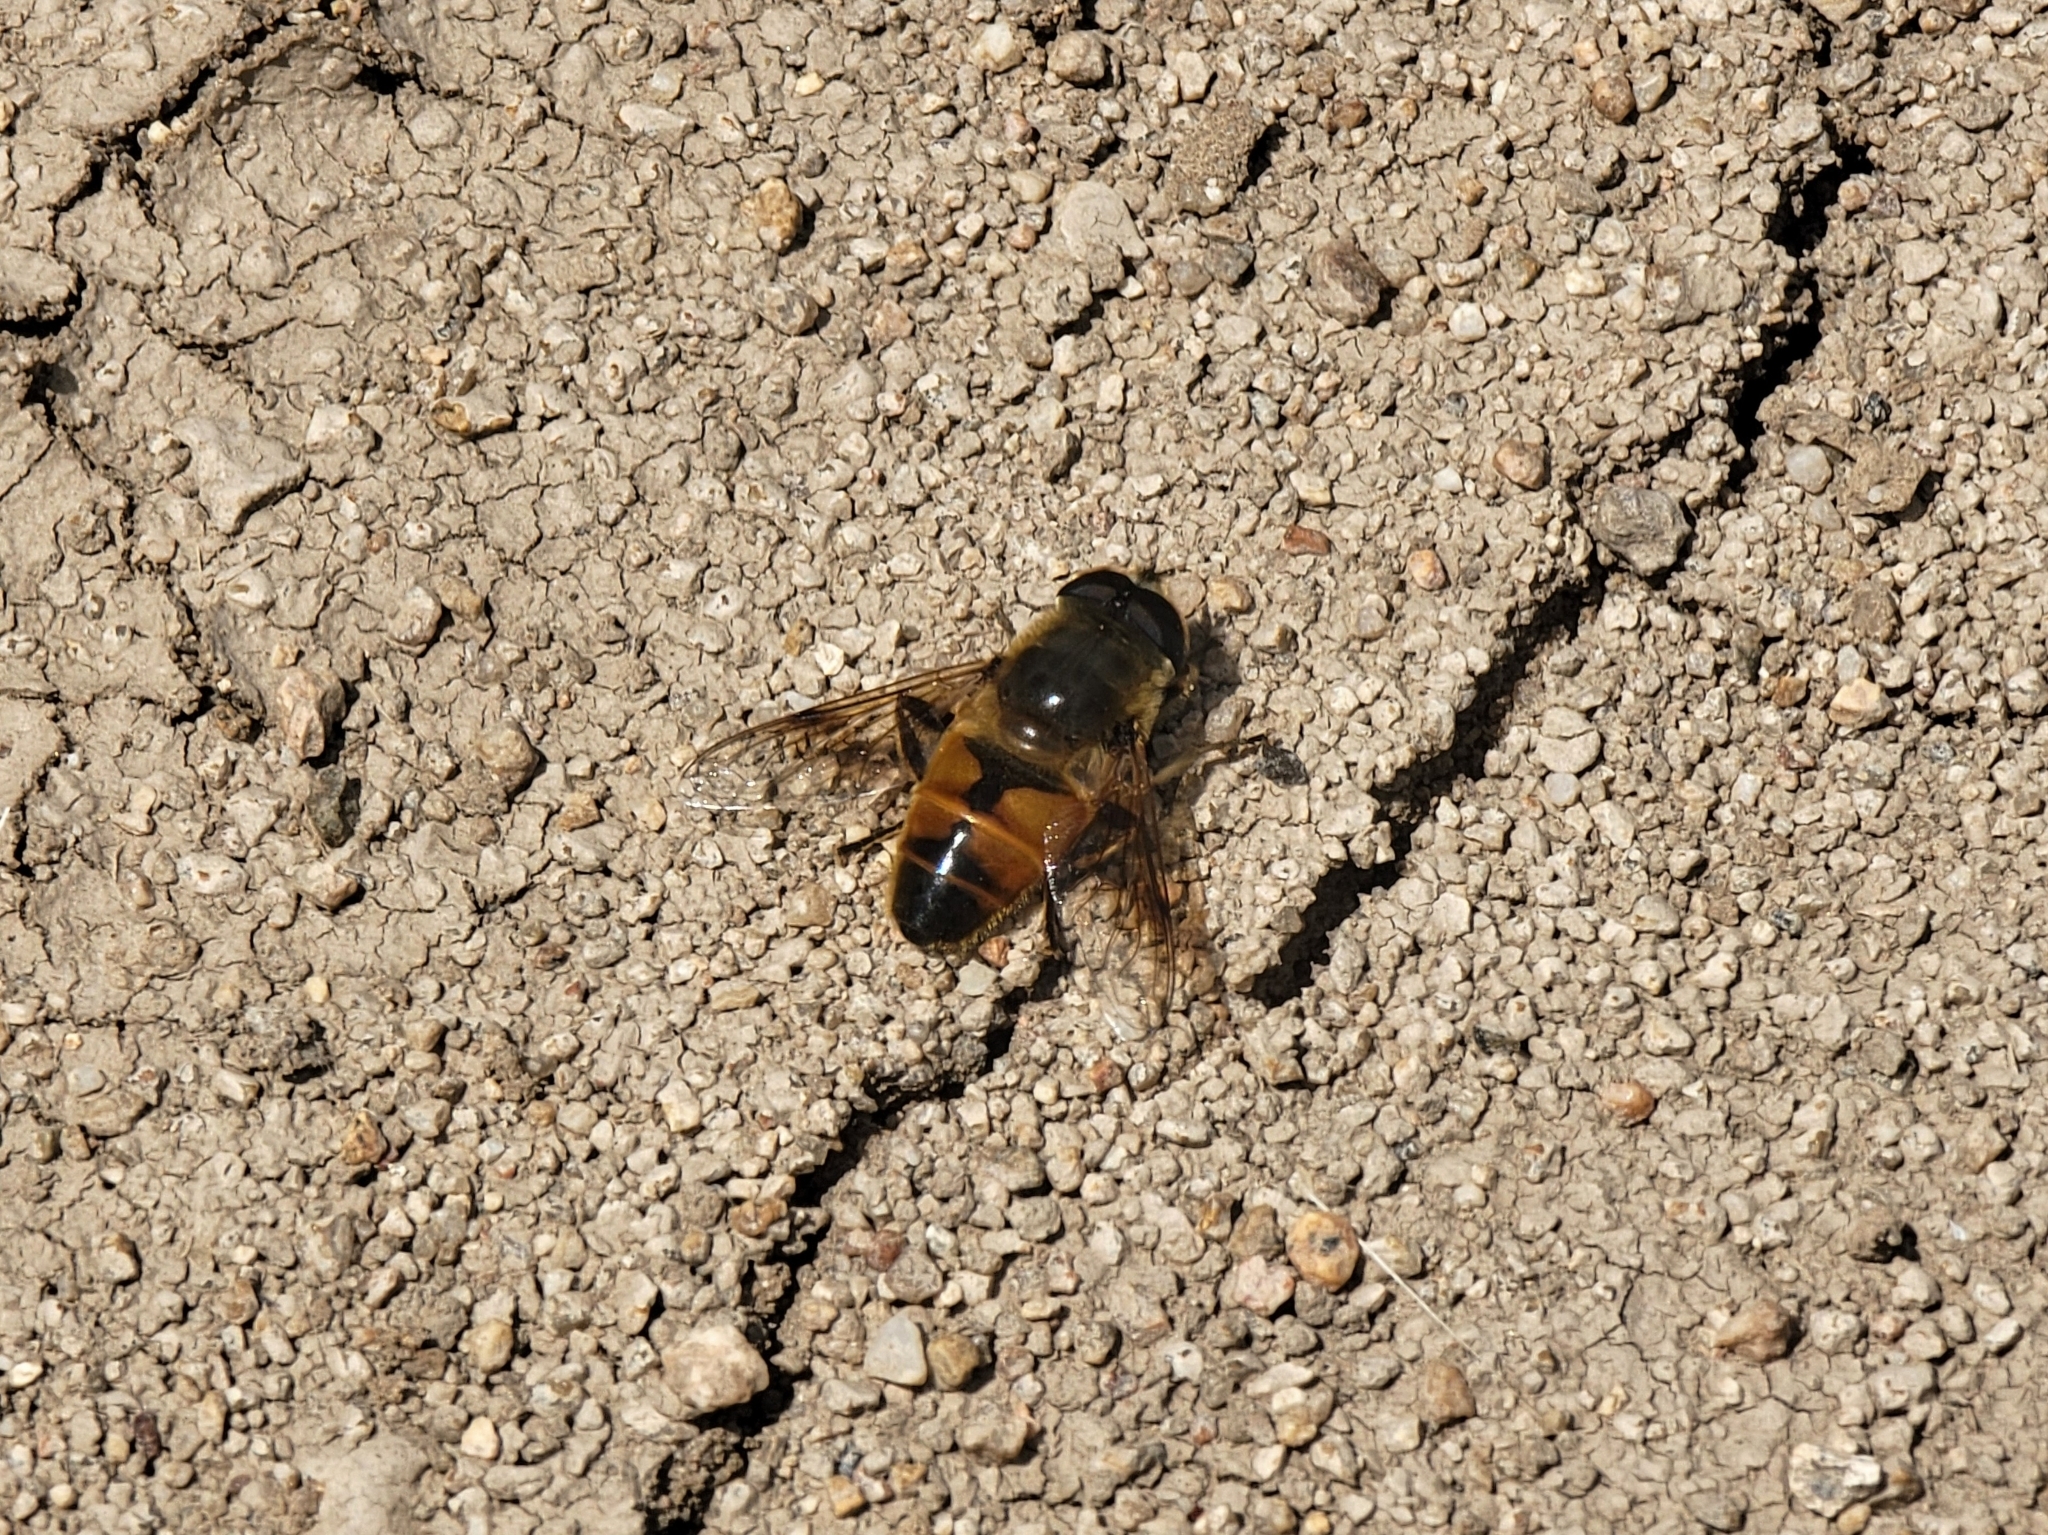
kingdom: Animalia
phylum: Arthropoda
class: Insecta
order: Diptera
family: Syrphidae
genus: Eristalis
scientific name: Eristalis tenax
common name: Drone fly
